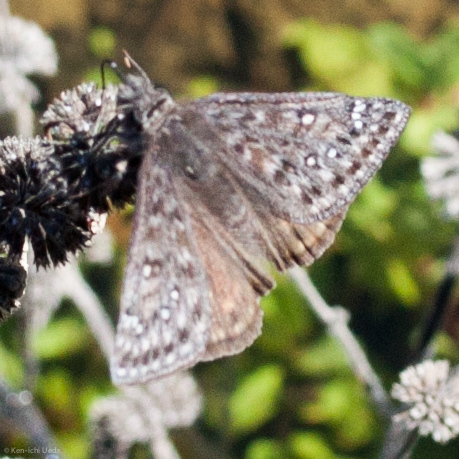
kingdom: Animalia
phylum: Arthropoda
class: Insecta
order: Lepidoptera
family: Hesperiidae
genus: Erynnis
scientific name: Erynnis propertius
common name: Propertius duskywing
